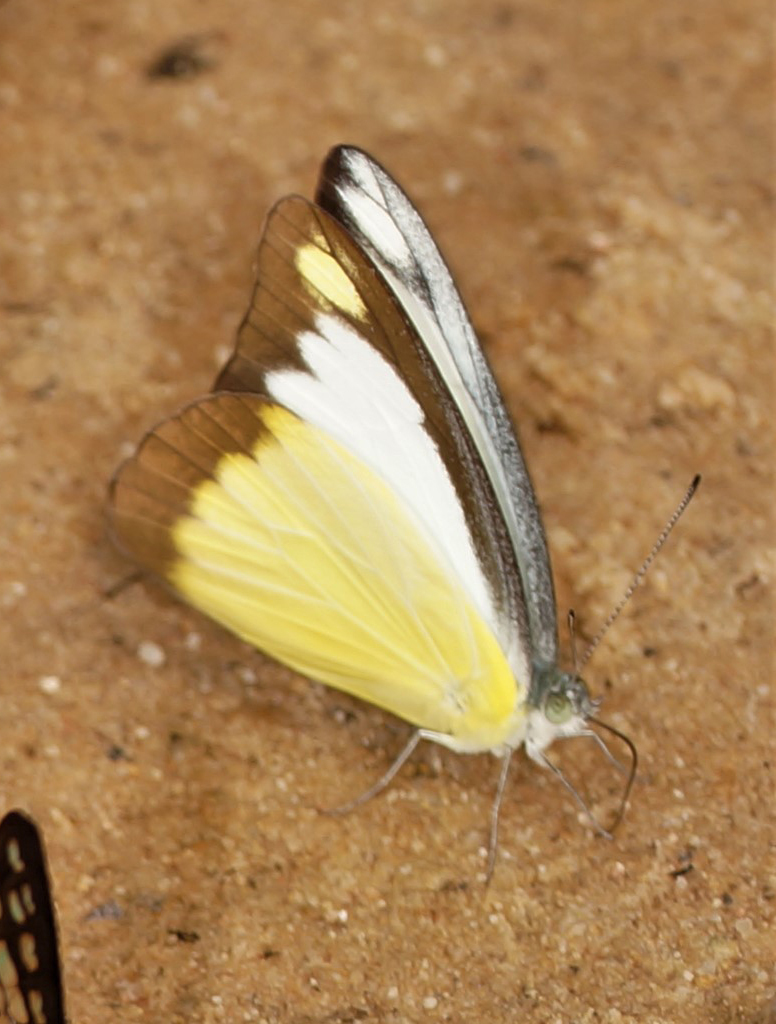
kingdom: Animalia
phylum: Arthropoda
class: Insecta
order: Lepidoptera
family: Pieridae
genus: Appias
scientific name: Appias lyncida
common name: Chocolate albatross
